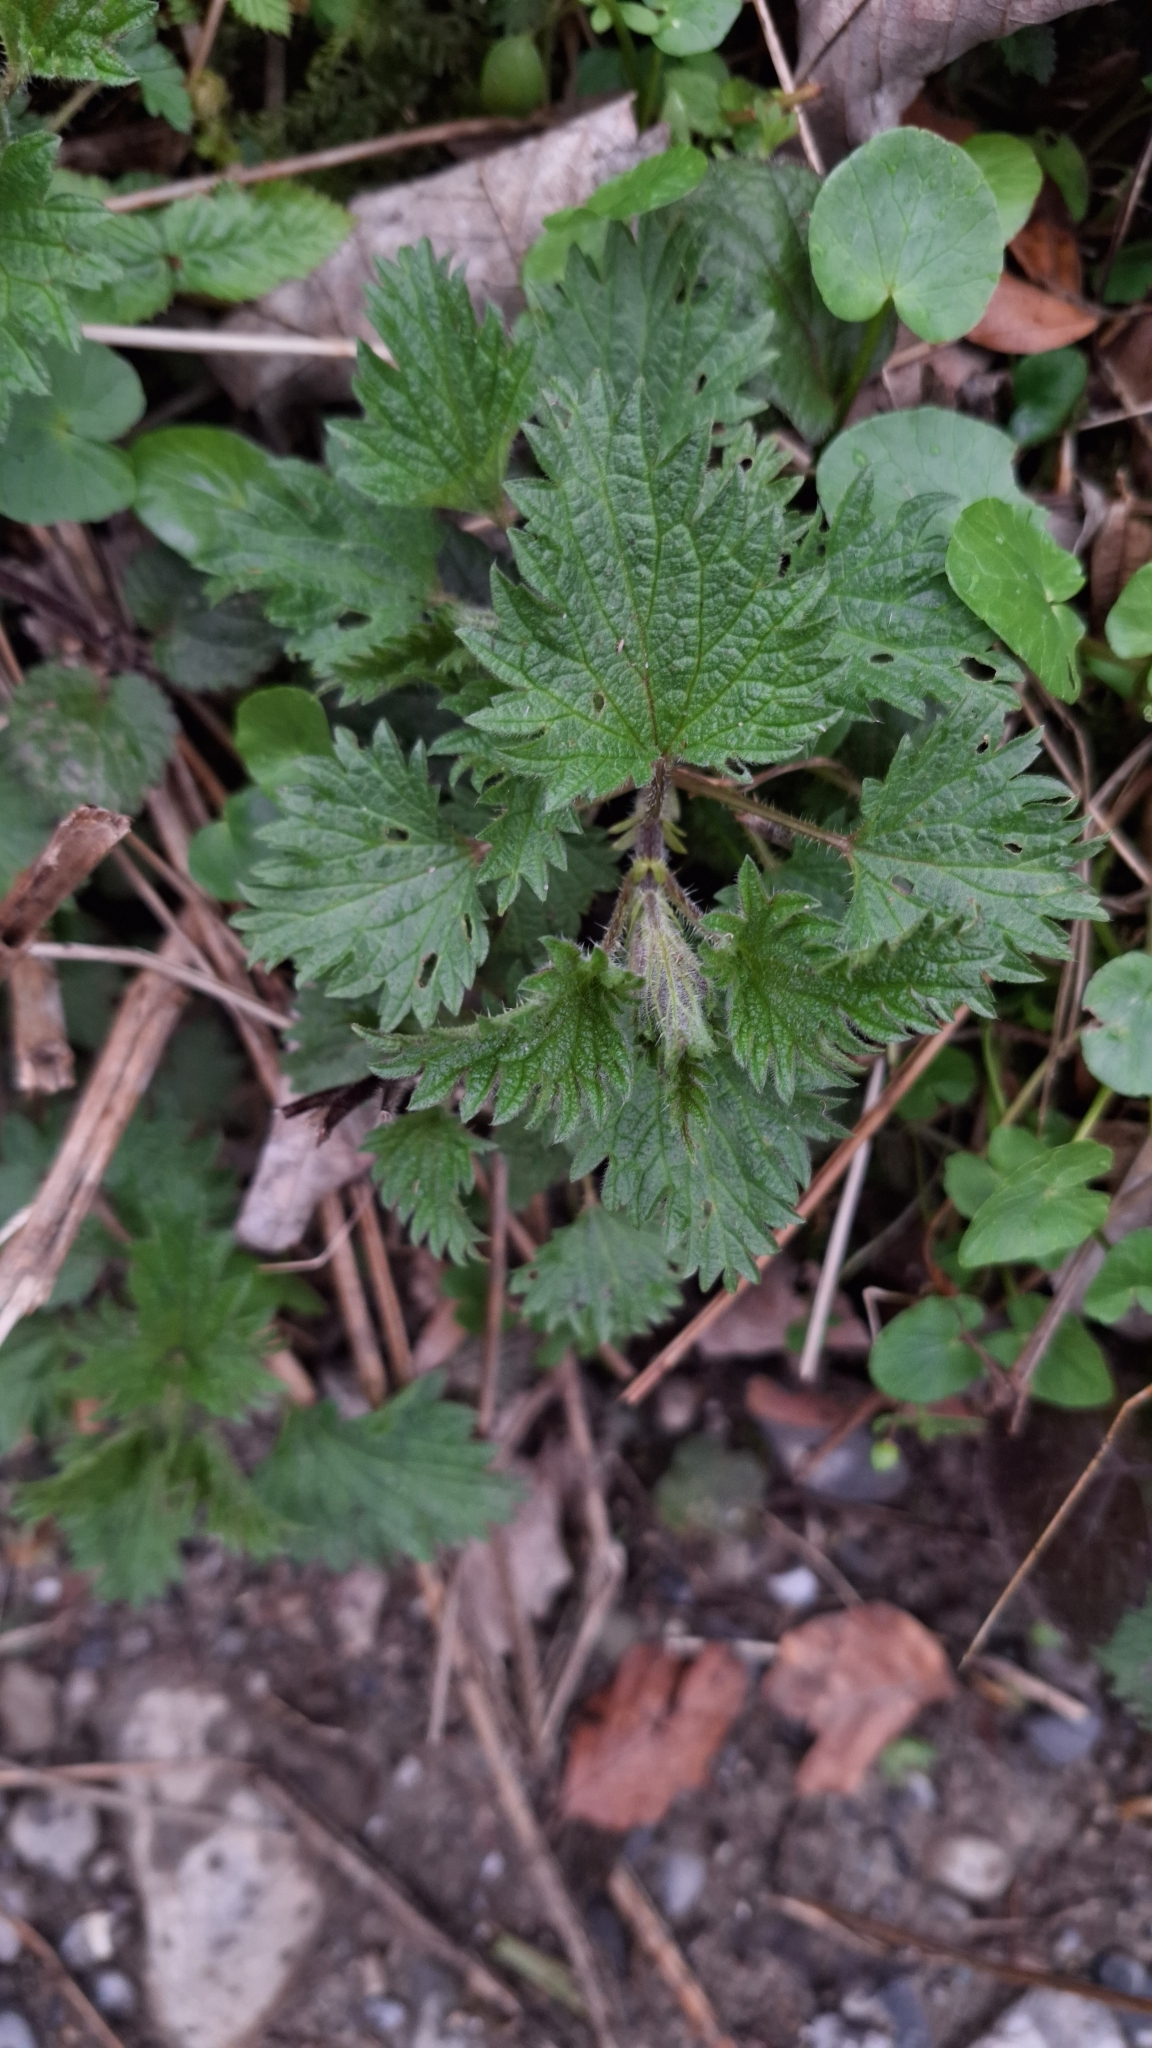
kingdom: Plantae
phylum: Tracheophyta
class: Magnoliopsida
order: Rosales
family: Urticaceae
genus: Urtica
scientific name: Urtica dioica
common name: Common nettle
